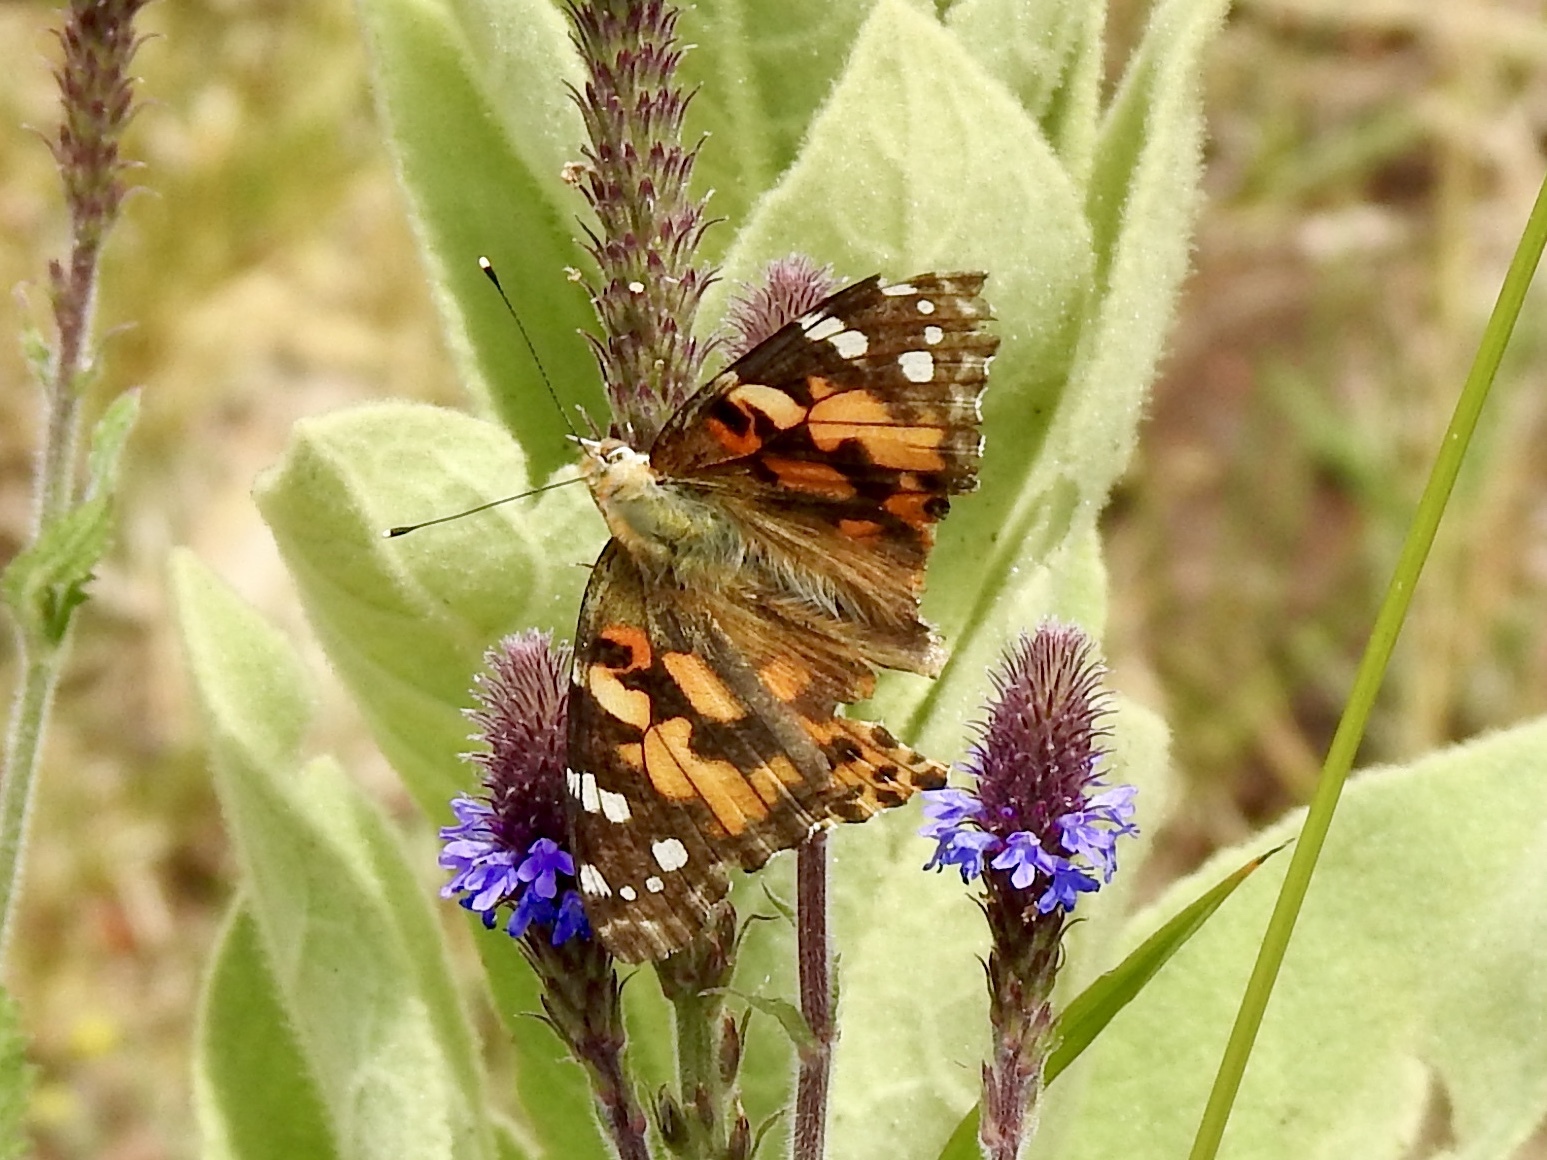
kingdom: Animalia
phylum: Arthropoda
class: Insecta
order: Lepidoptera
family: Nymphalidae
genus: Vanessa
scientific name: Vanessa cardui
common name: Painted lady
